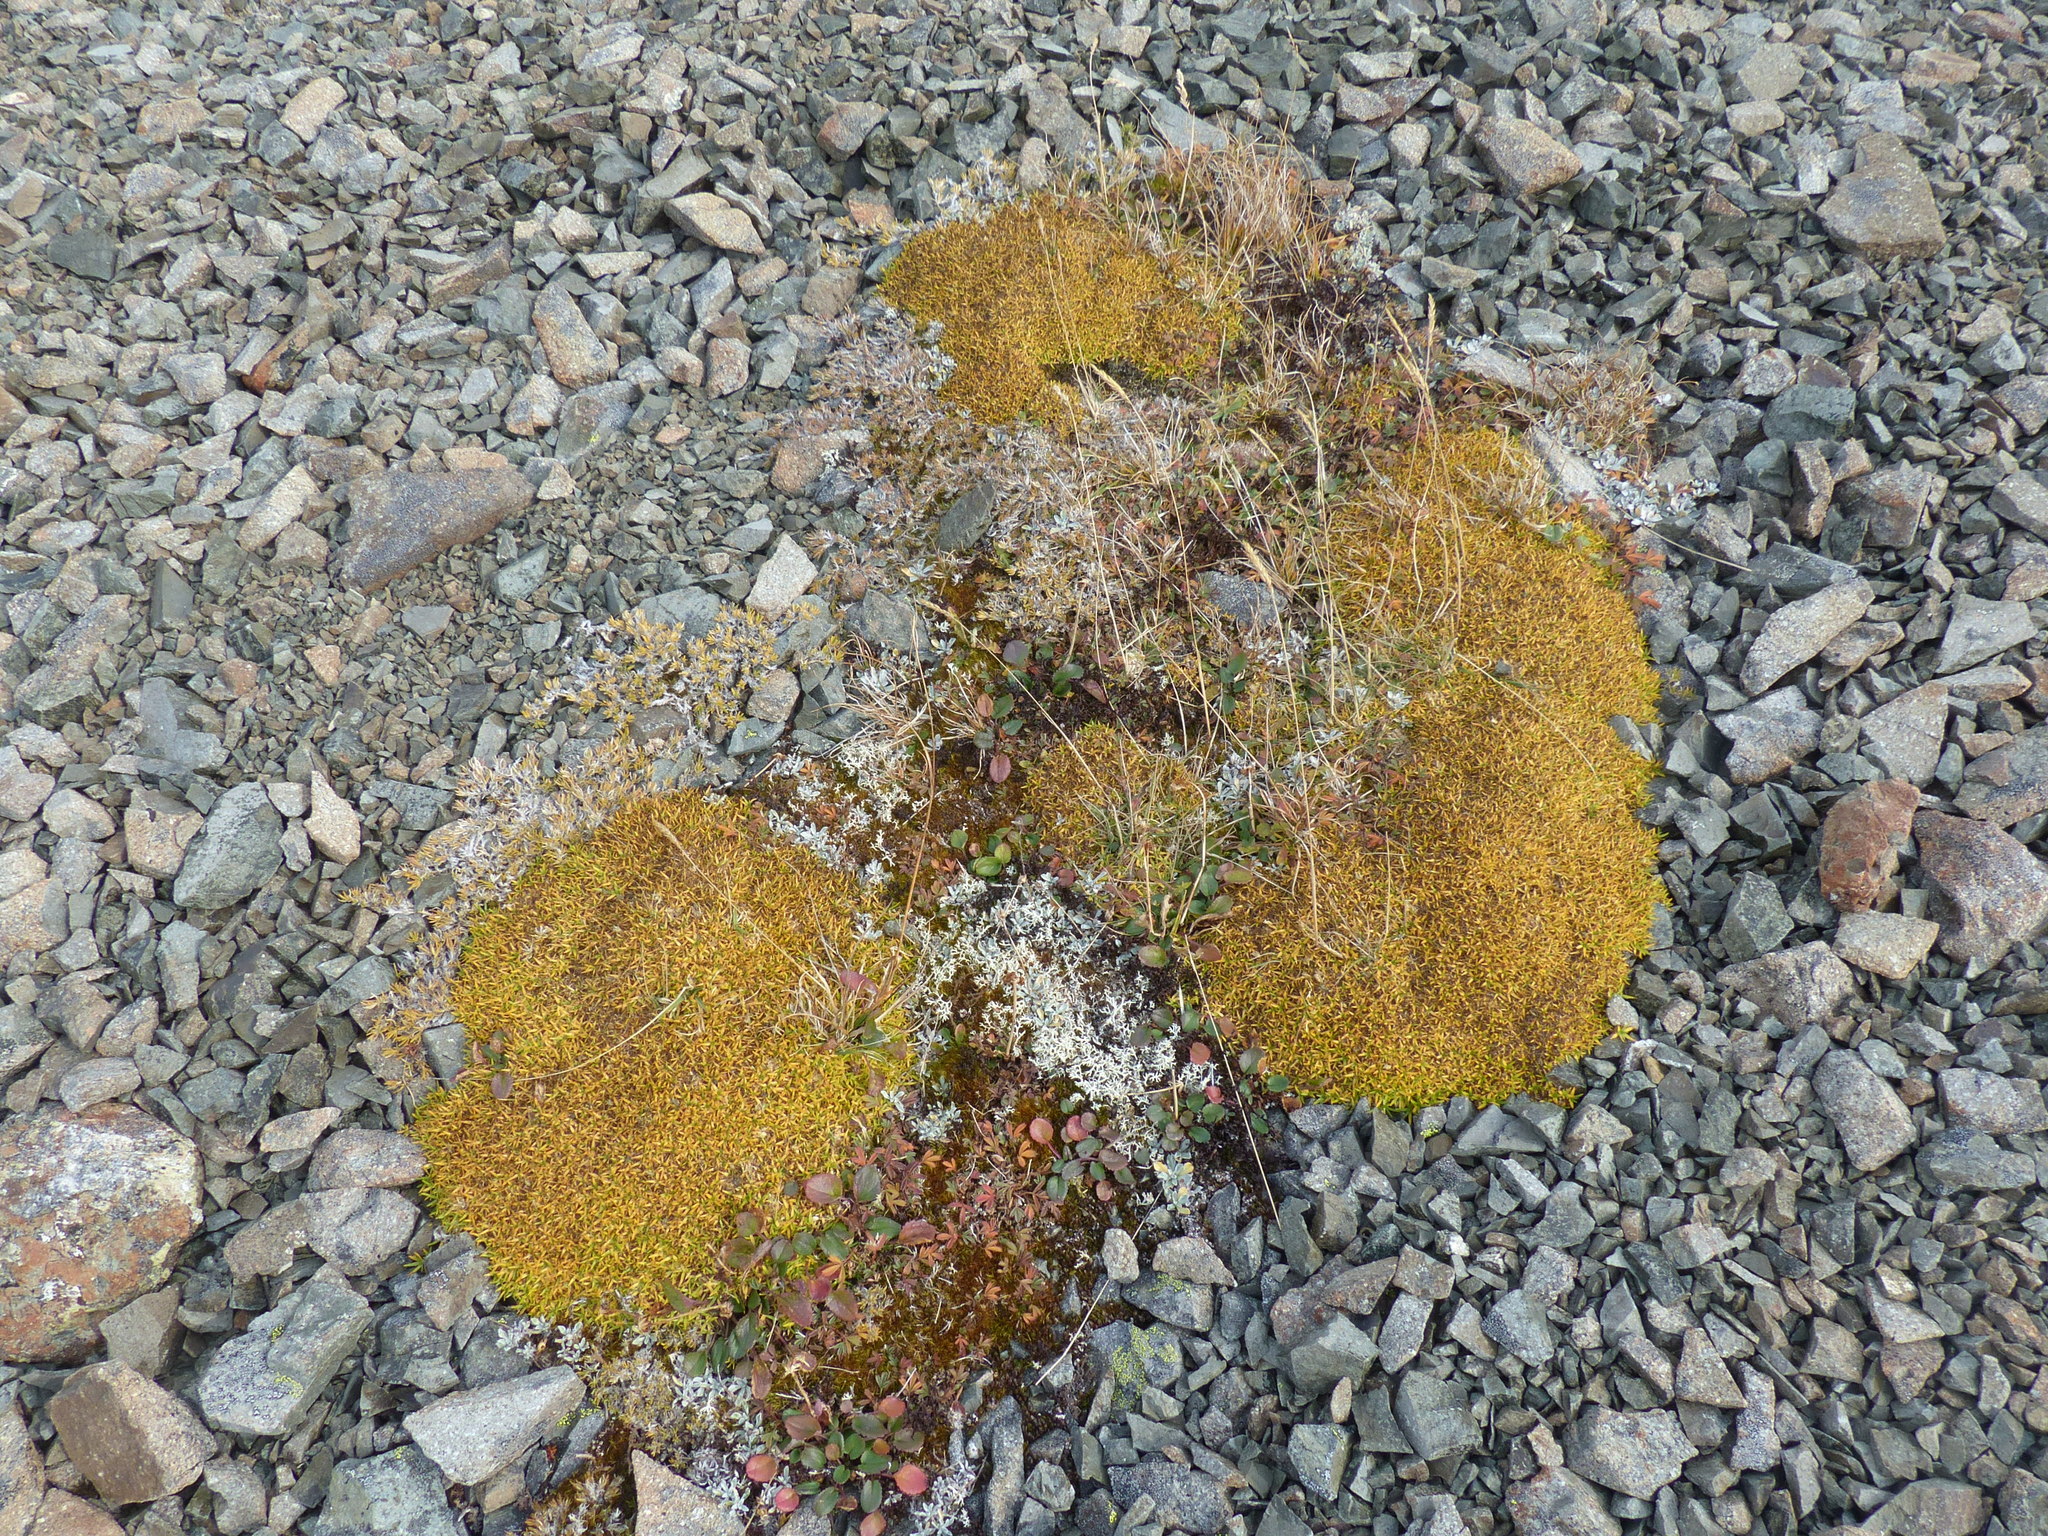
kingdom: Plantae
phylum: Tracheophyta
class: Magnoliopsida
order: Caryophyllales
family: Caryophyllaceae
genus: Silene
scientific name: Silene acaulis
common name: Moss campion
